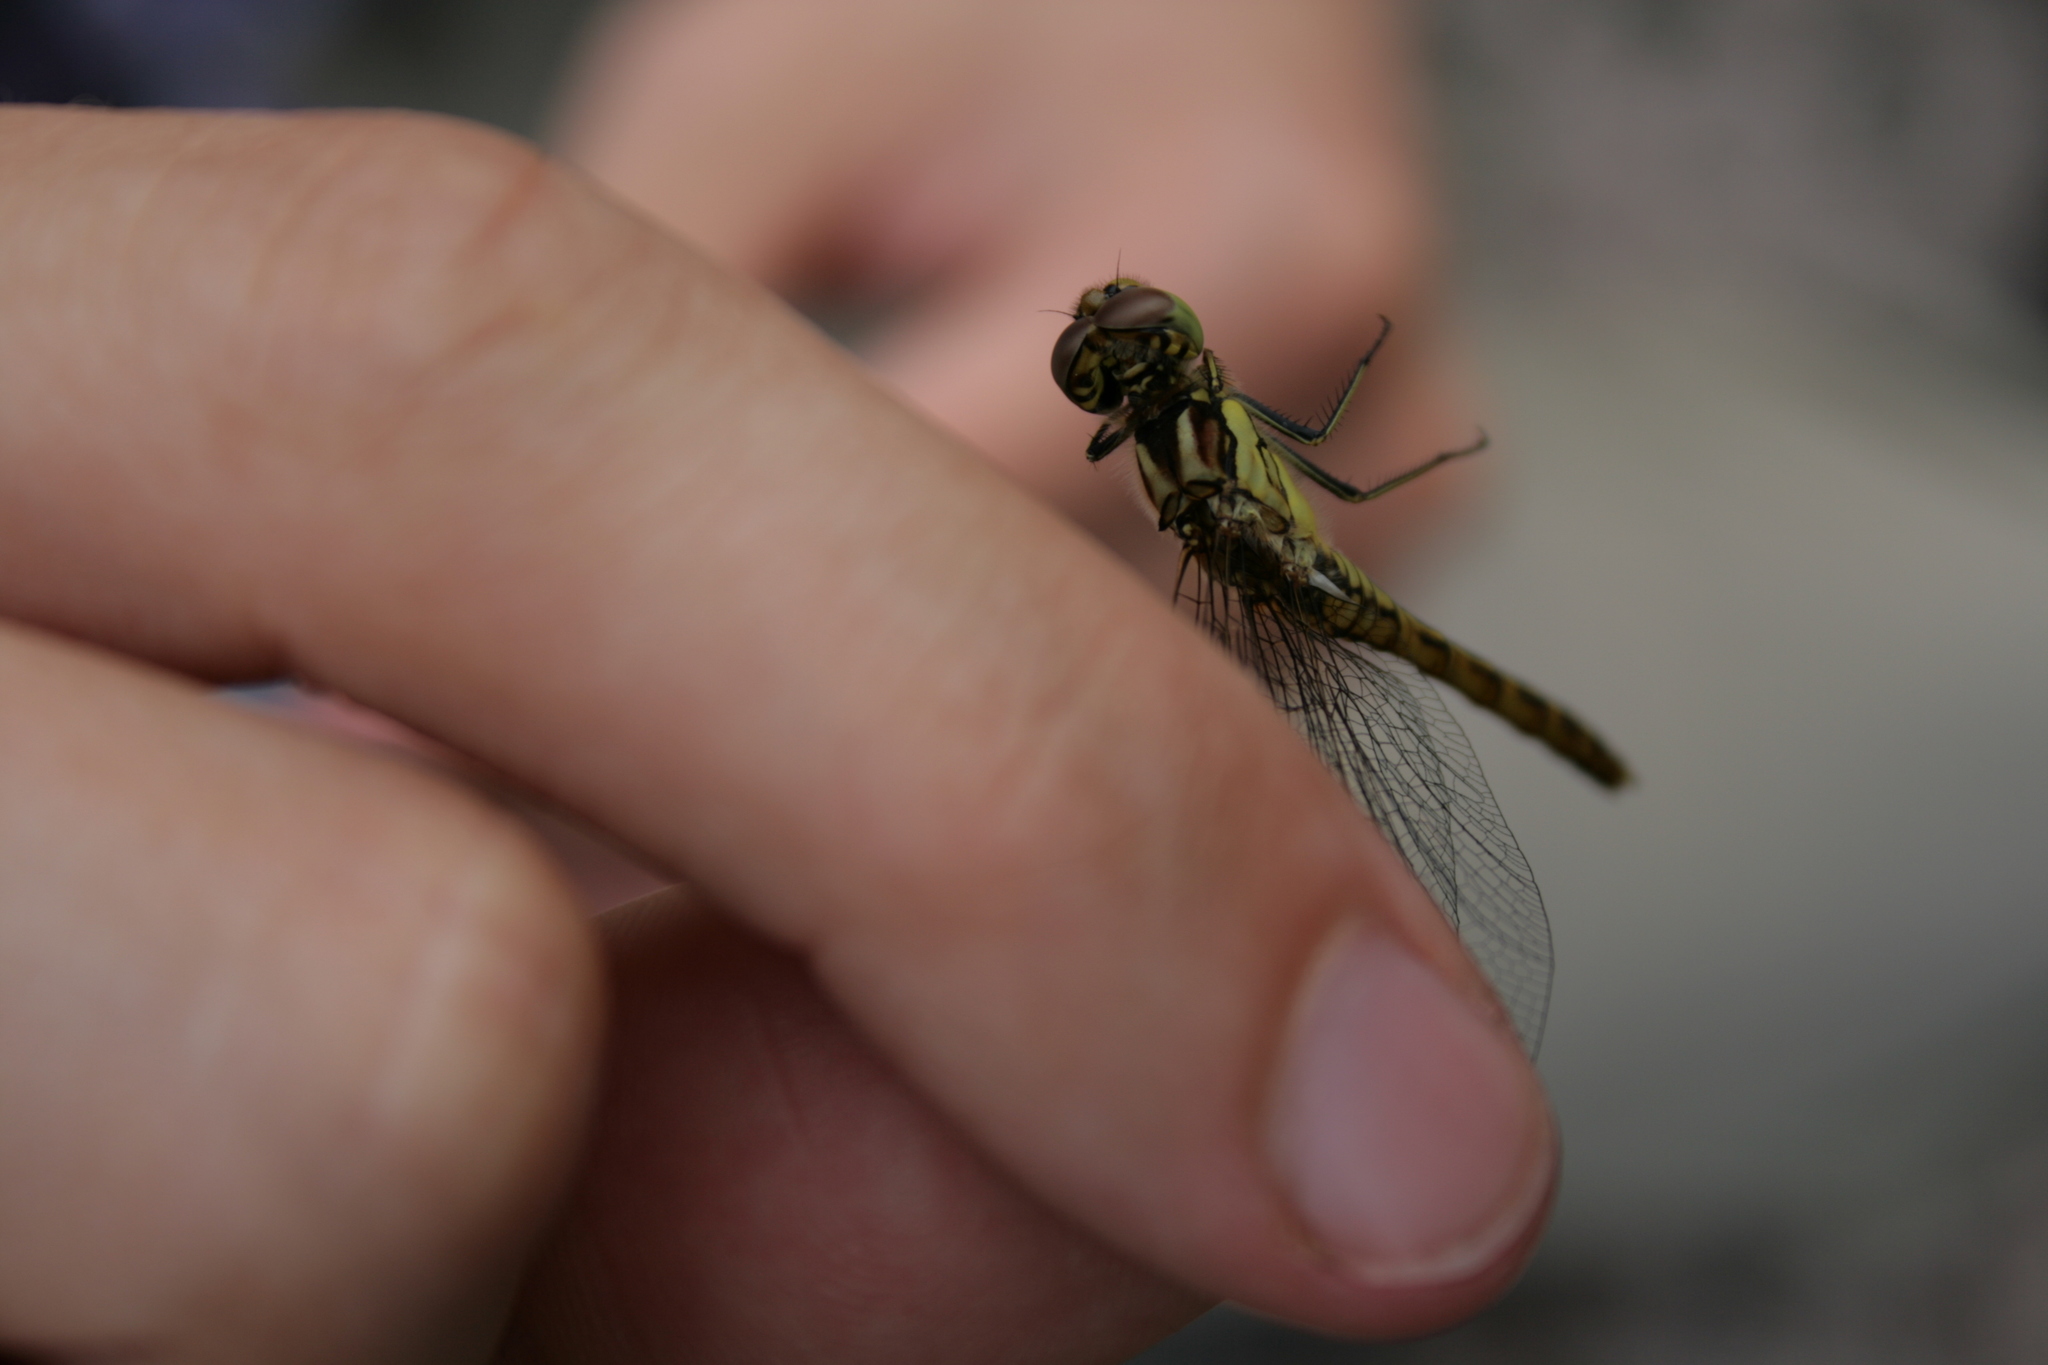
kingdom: Animalia
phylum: Arthropoda
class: Insecta
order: Odonata
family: Libellulidae
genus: Sympetrum
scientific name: Sympetrum vulgatum
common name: Vagrant darter
